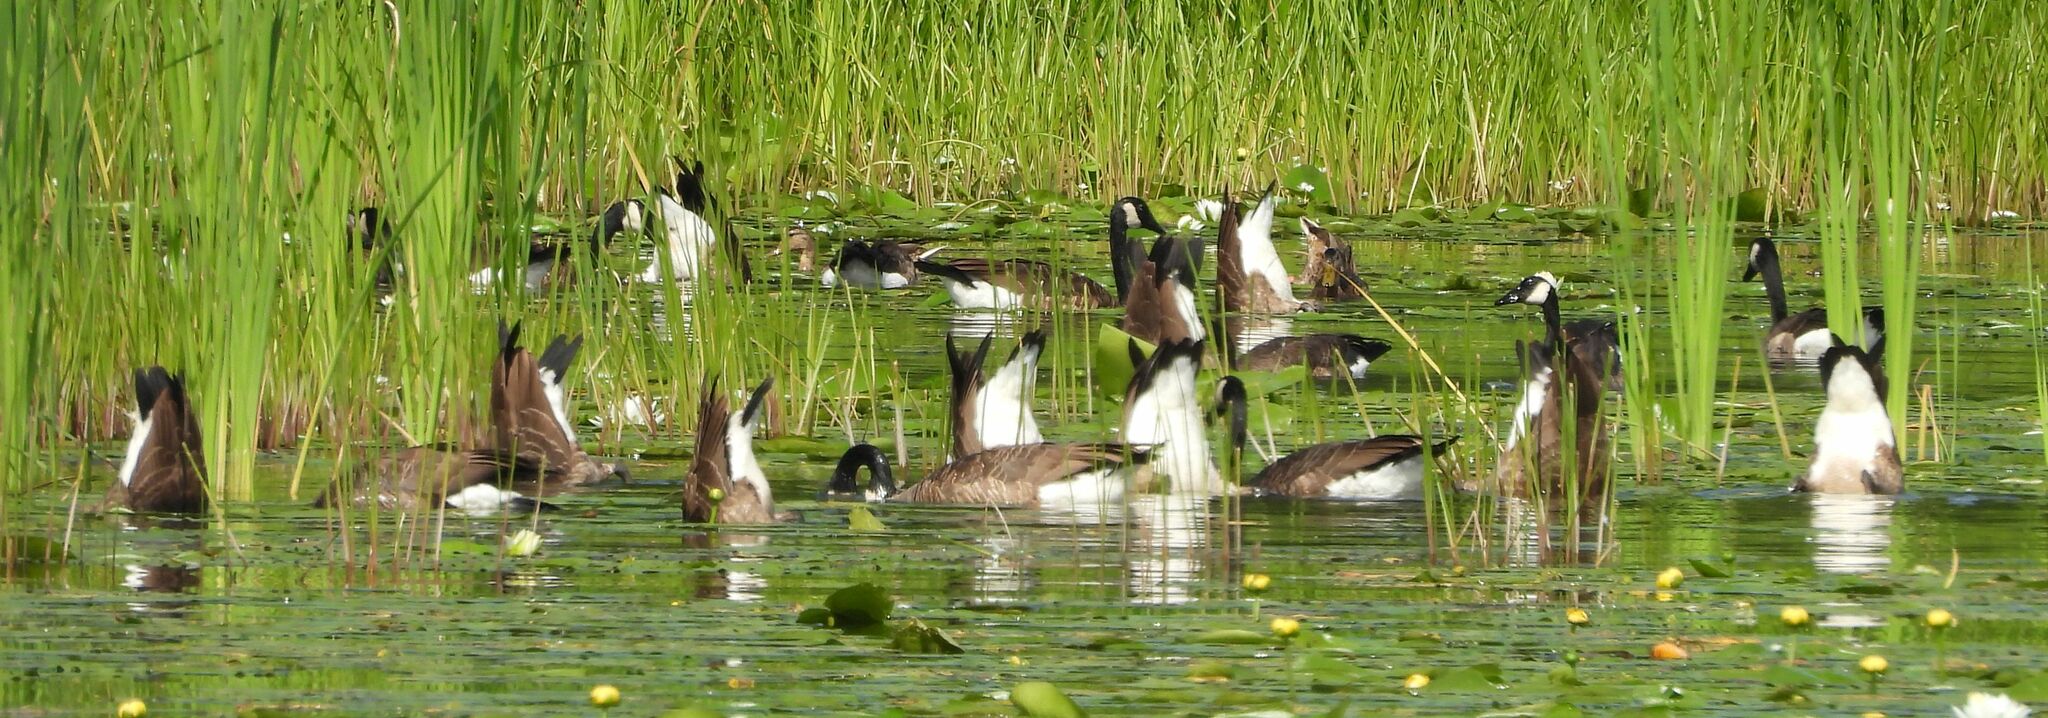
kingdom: Animalia
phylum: Chordata
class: Aves
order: Anseriformes
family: Anatidae
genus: Branta
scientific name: Branta canadensis
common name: Canada goose
